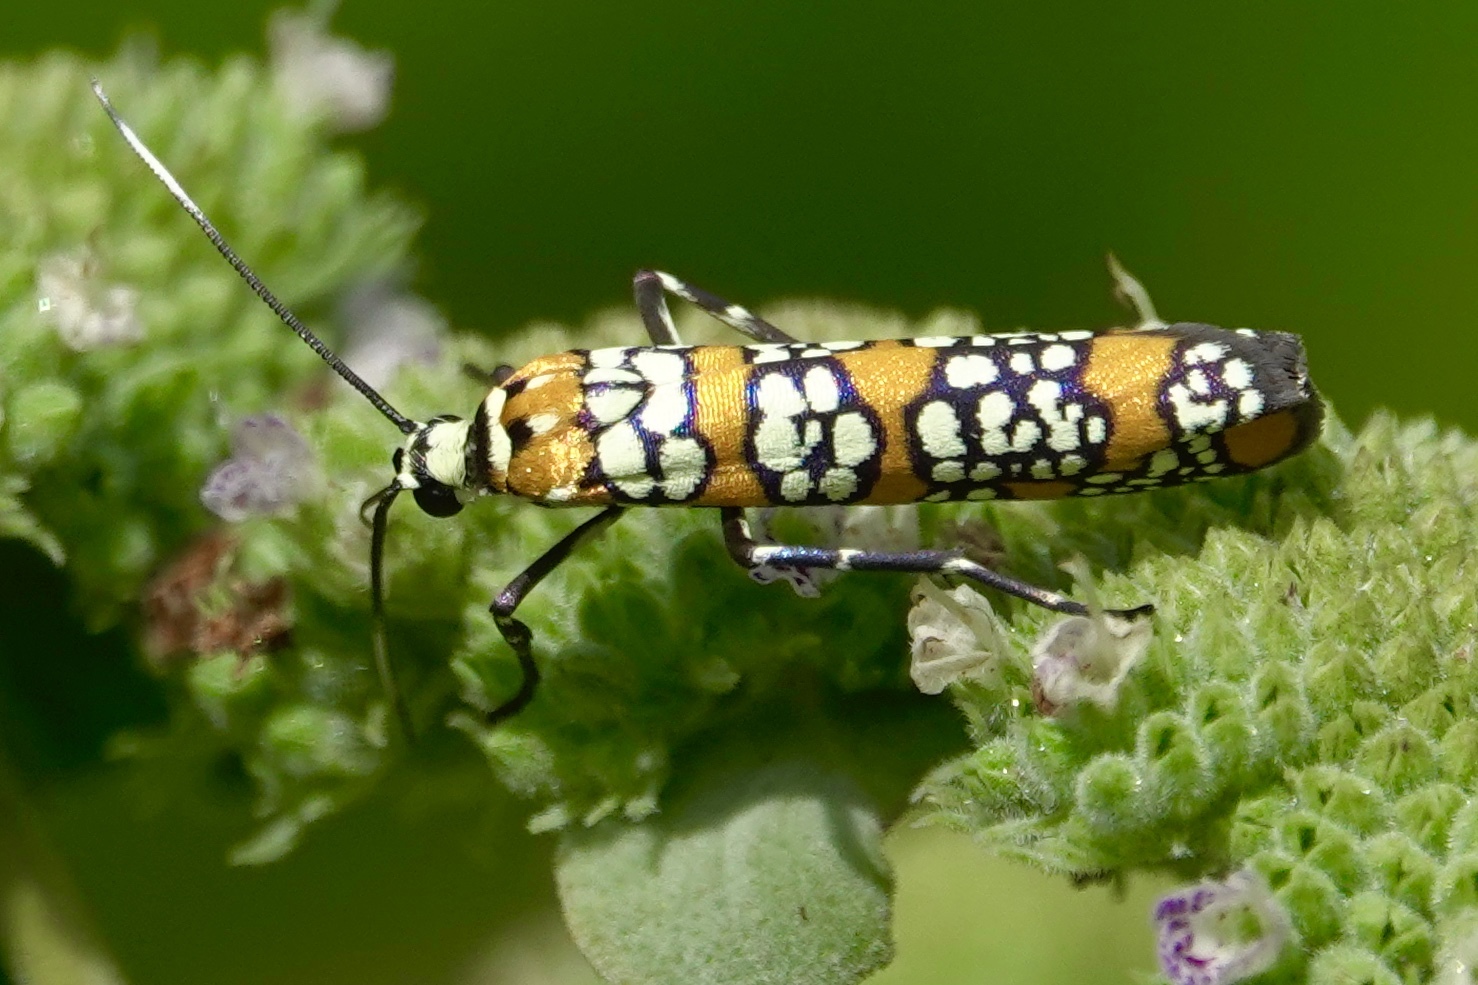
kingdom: Animalia
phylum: Arthropoda
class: Insecta
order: Lepidoptera
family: Attevidae
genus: Atteva
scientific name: Atteva punctella
